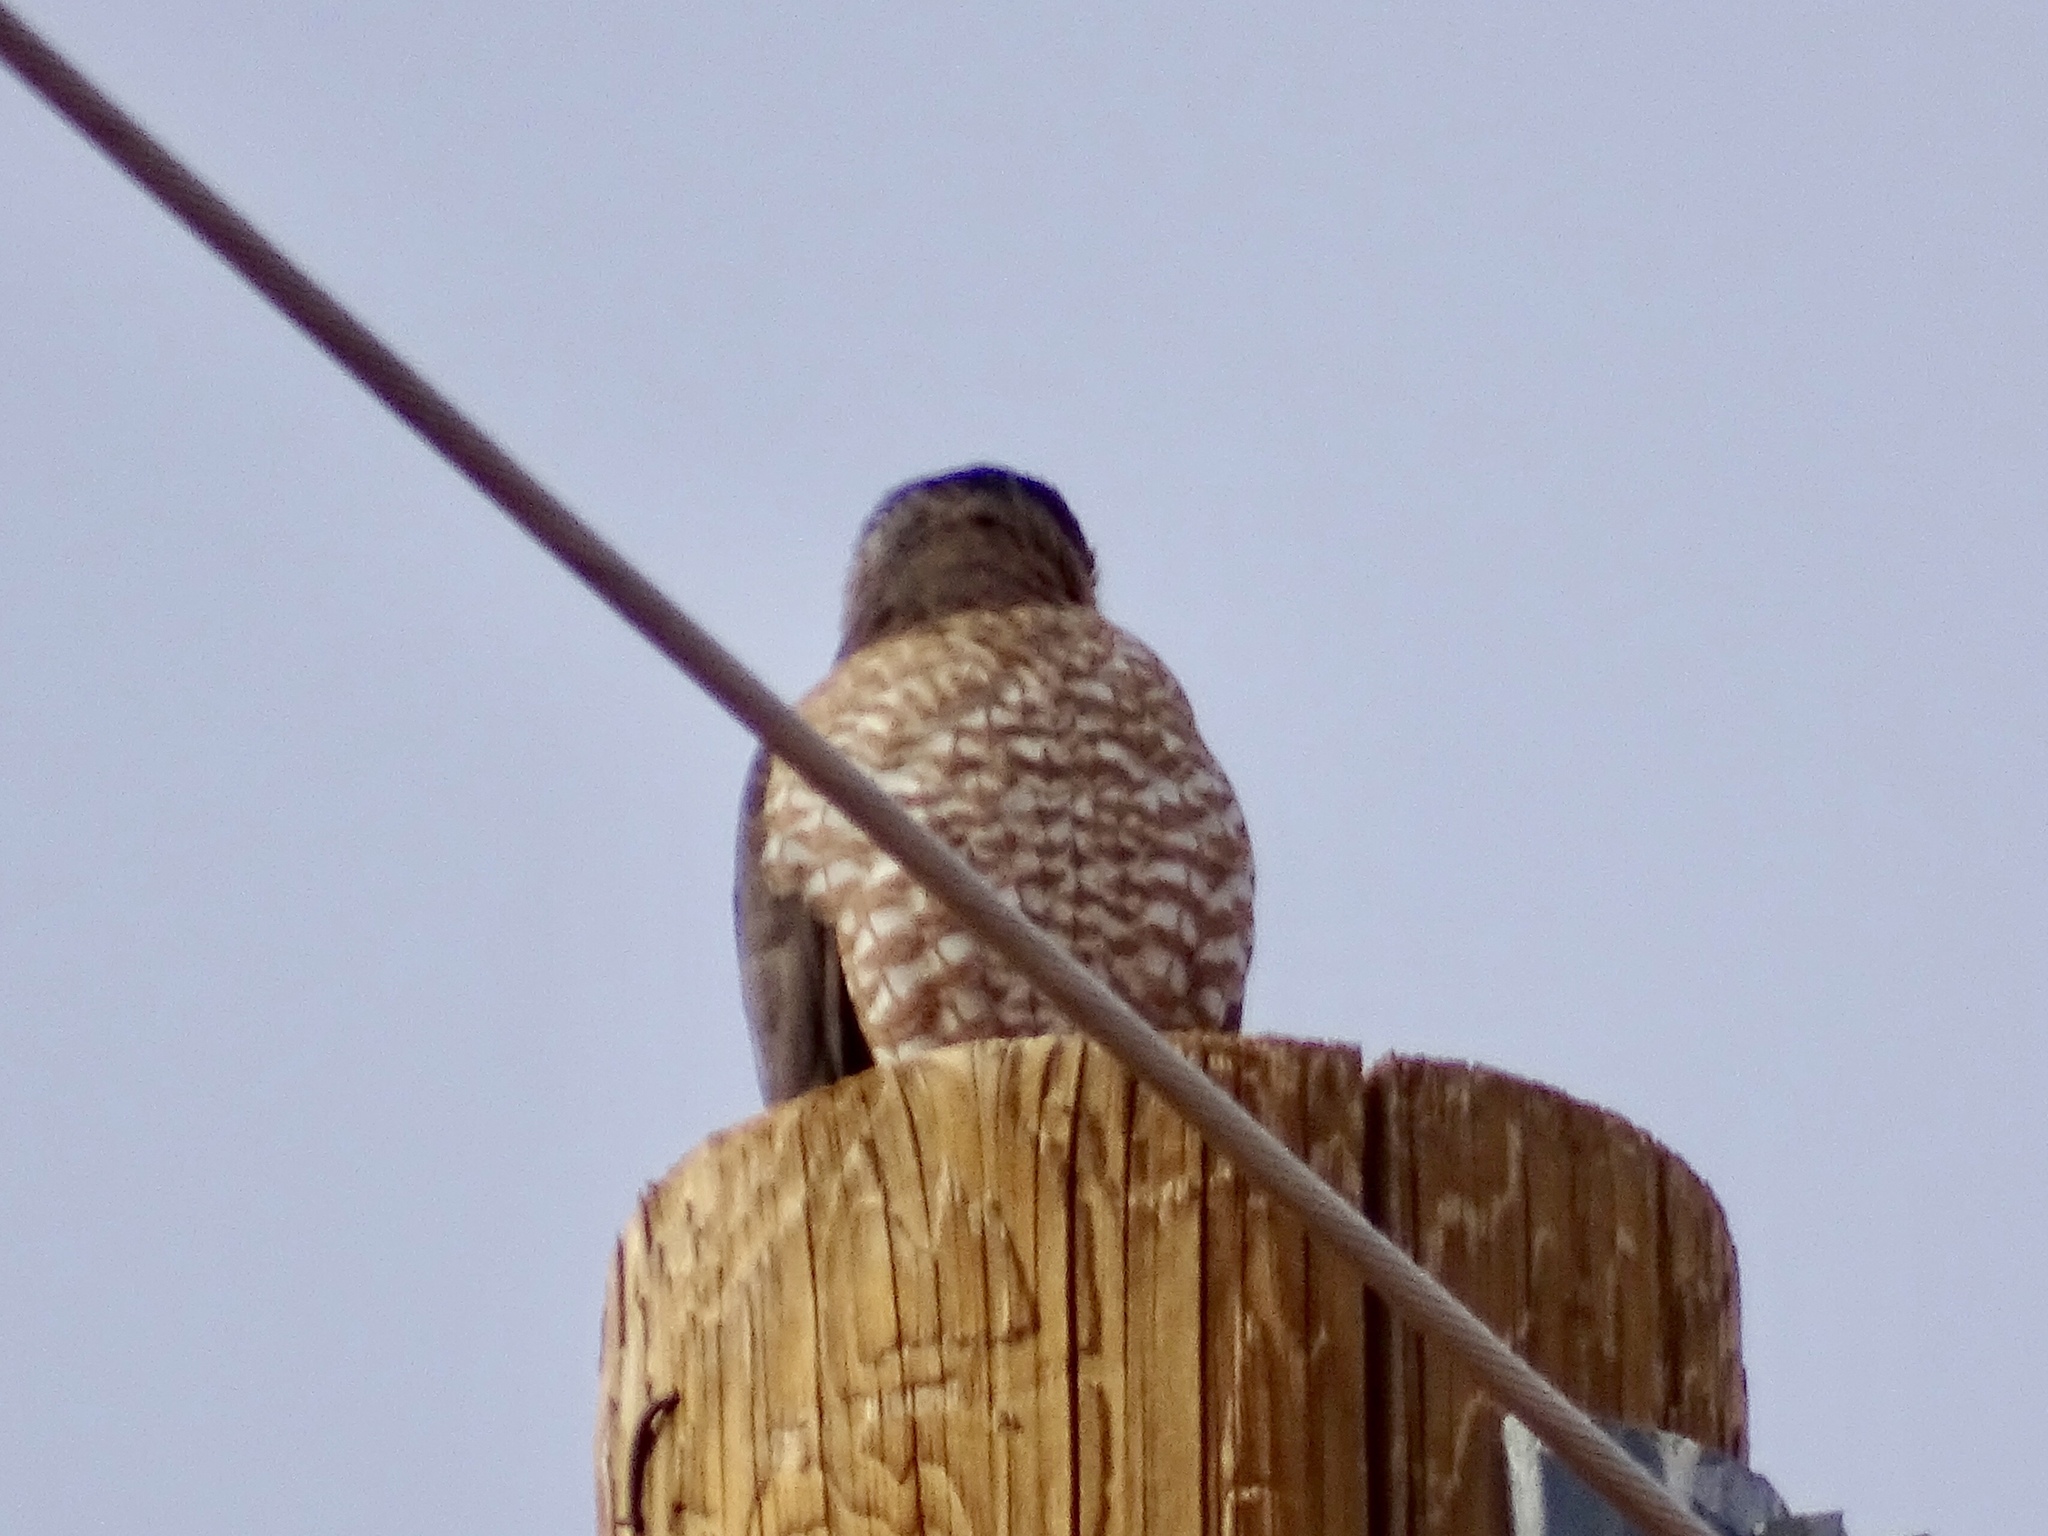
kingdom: Animalia
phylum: Chordata
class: Aves
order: Accipitriformes
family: Accipitridae
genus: Accipiter
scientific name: Accipiter cooperii
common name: Cooper's hawk
